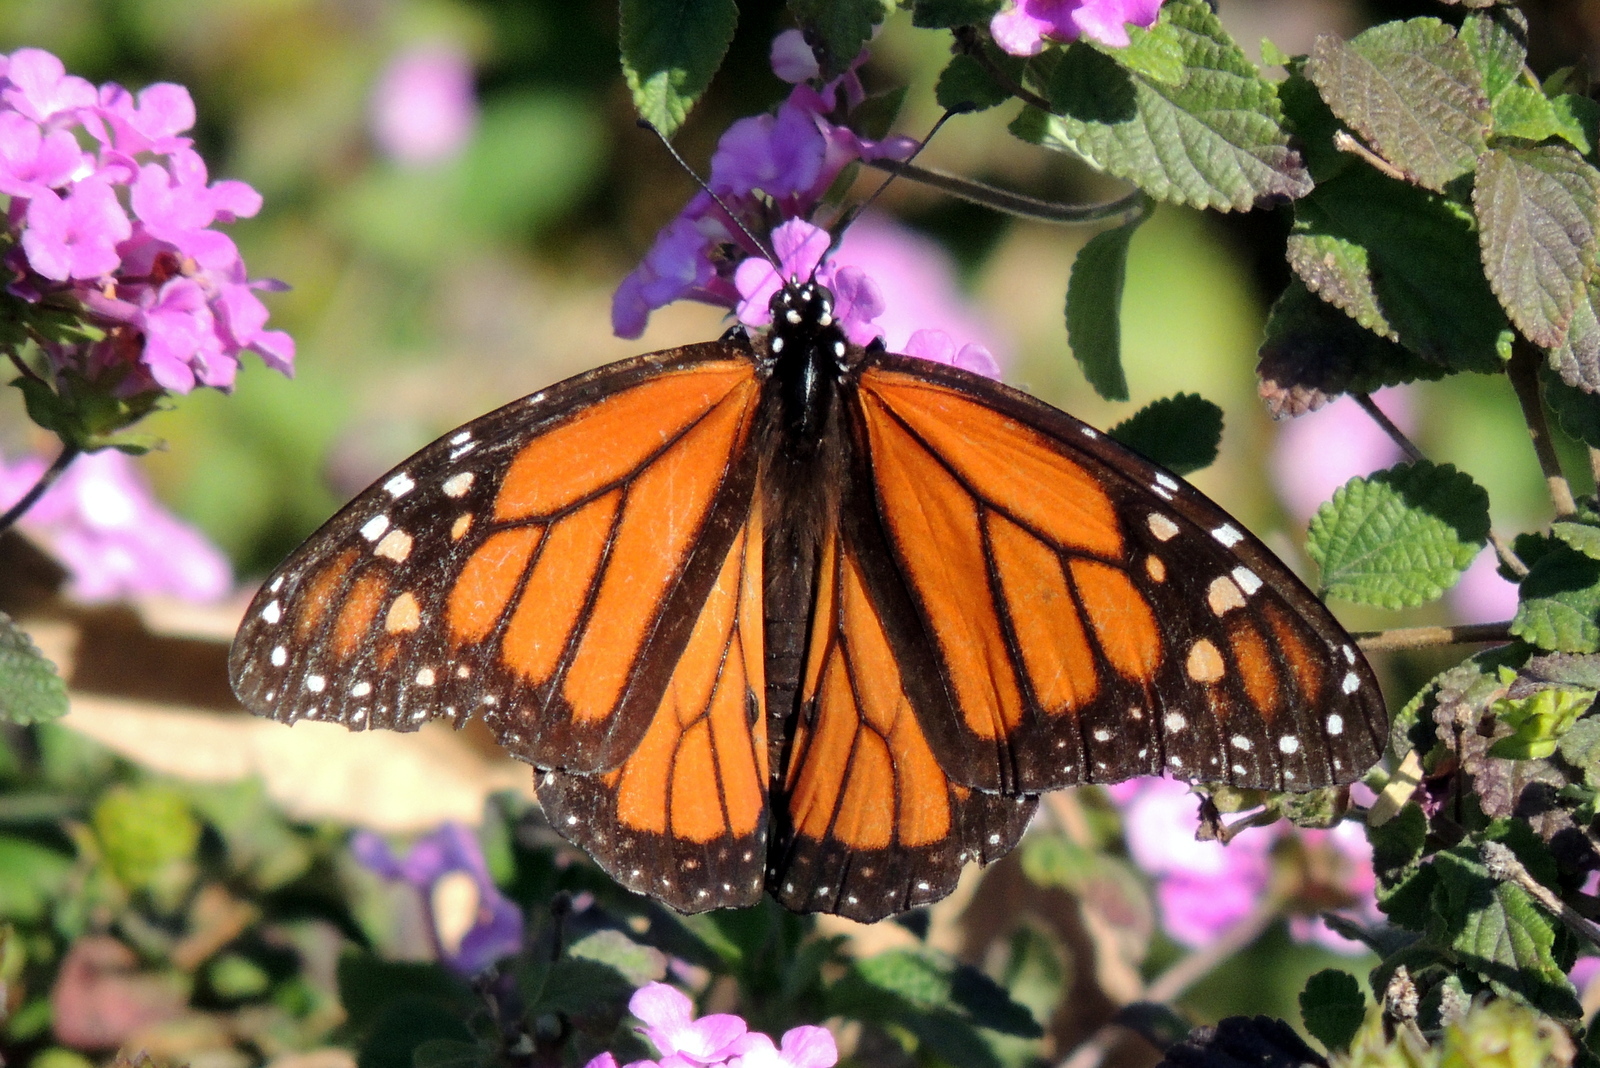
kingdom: Animalia
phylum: Arthropoda
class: Insecta
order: Lepidoptera
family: Nymphalidae
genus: Danaus
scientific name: Danaus plexippus
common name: Monarch
